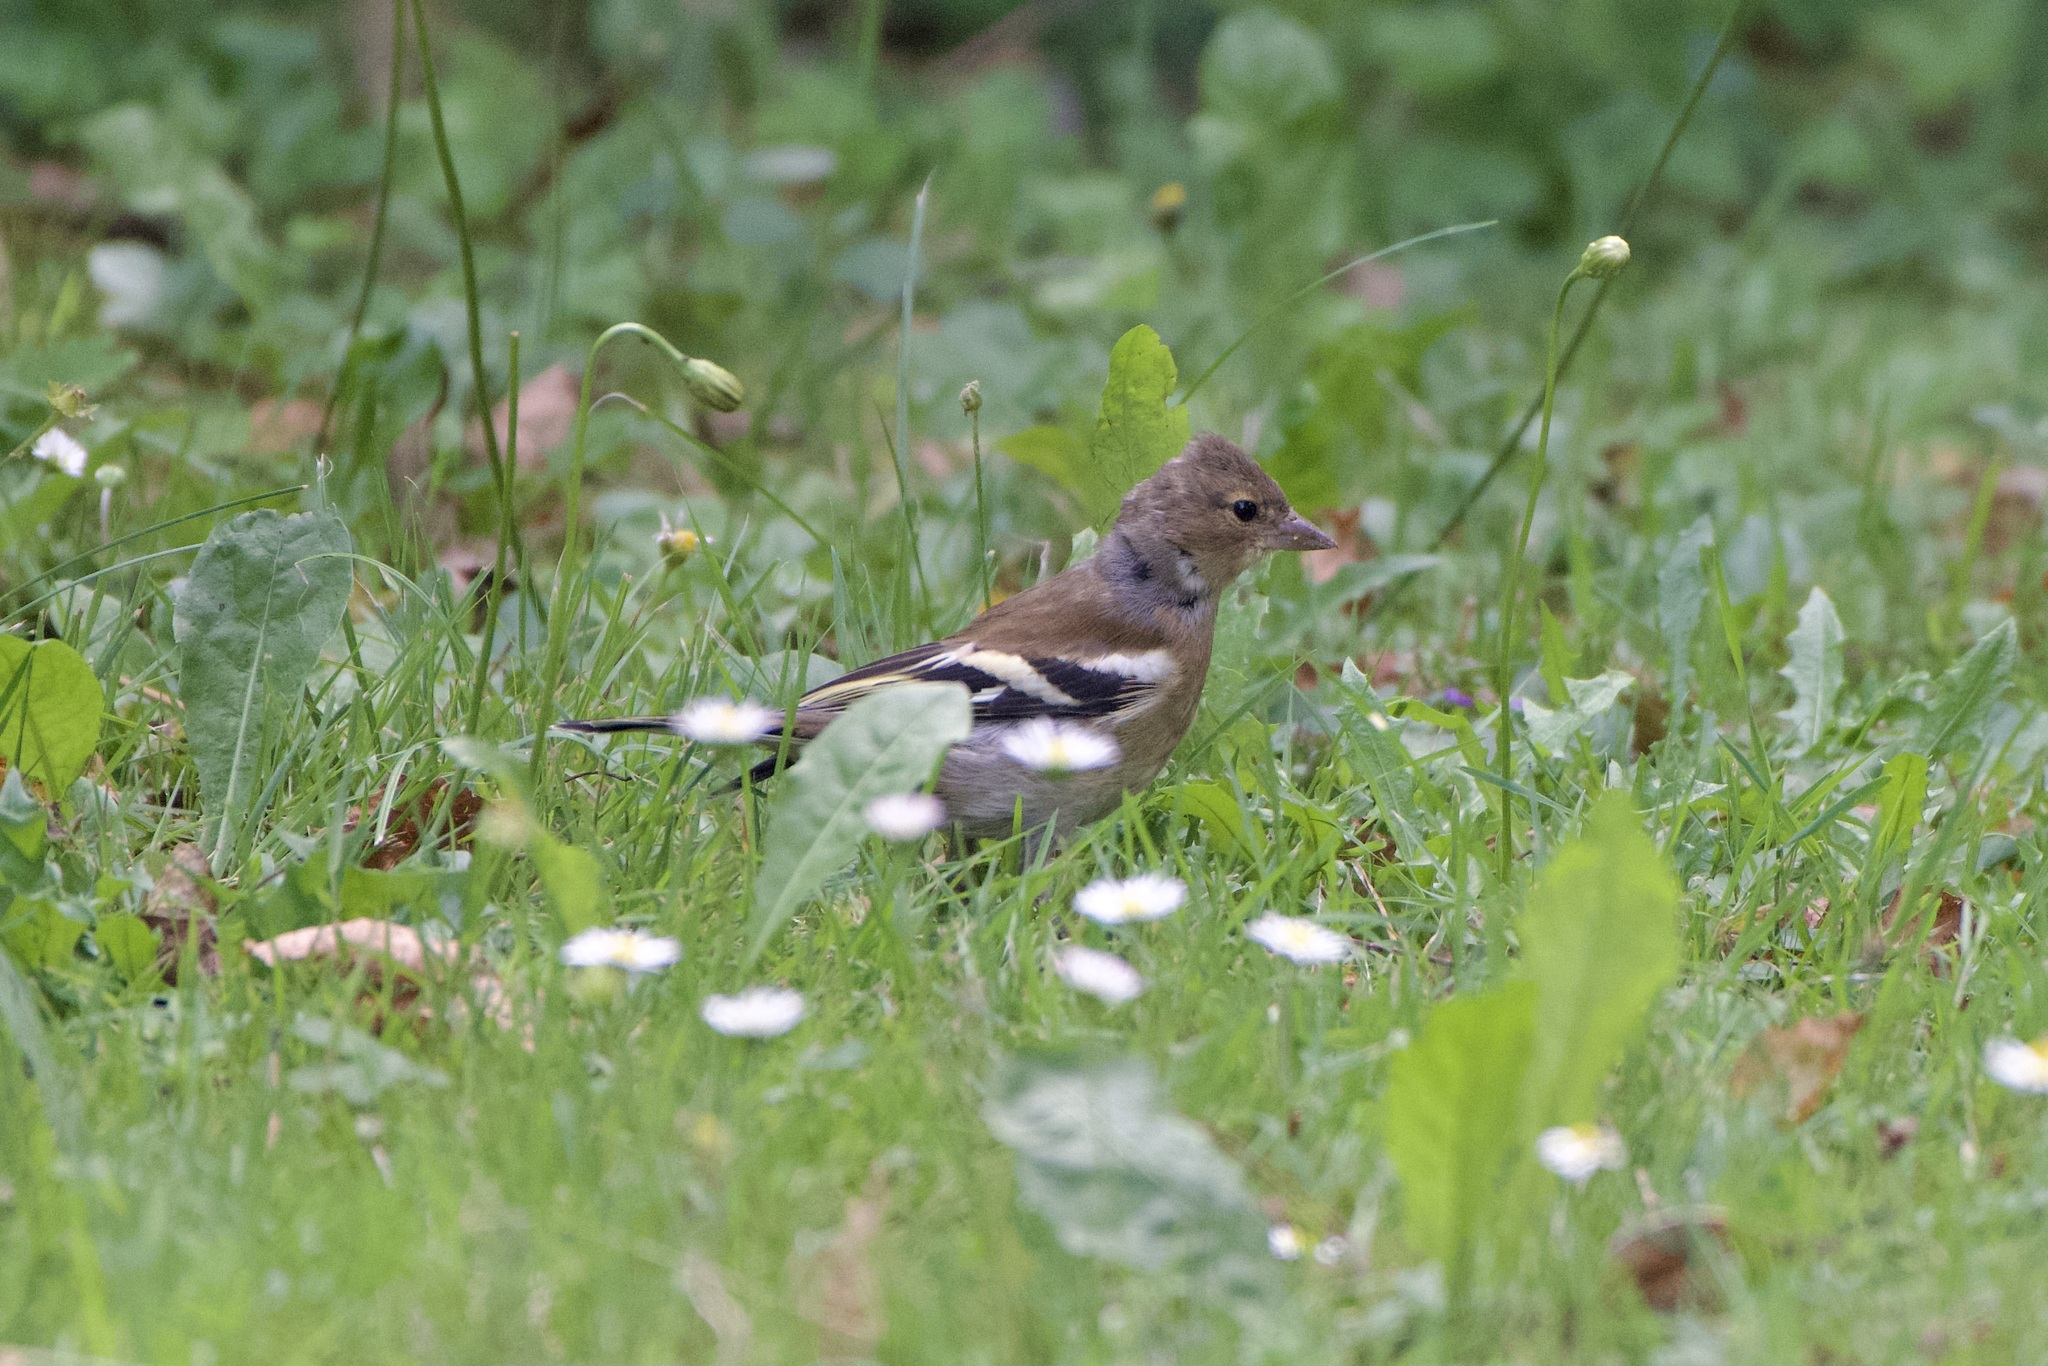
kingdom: Animalia
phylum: Chordata
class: Aves
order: Passeriformes
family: Fringillidae
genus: Fringilla
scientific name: Fringilla coelebs
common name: Common chaffinch
